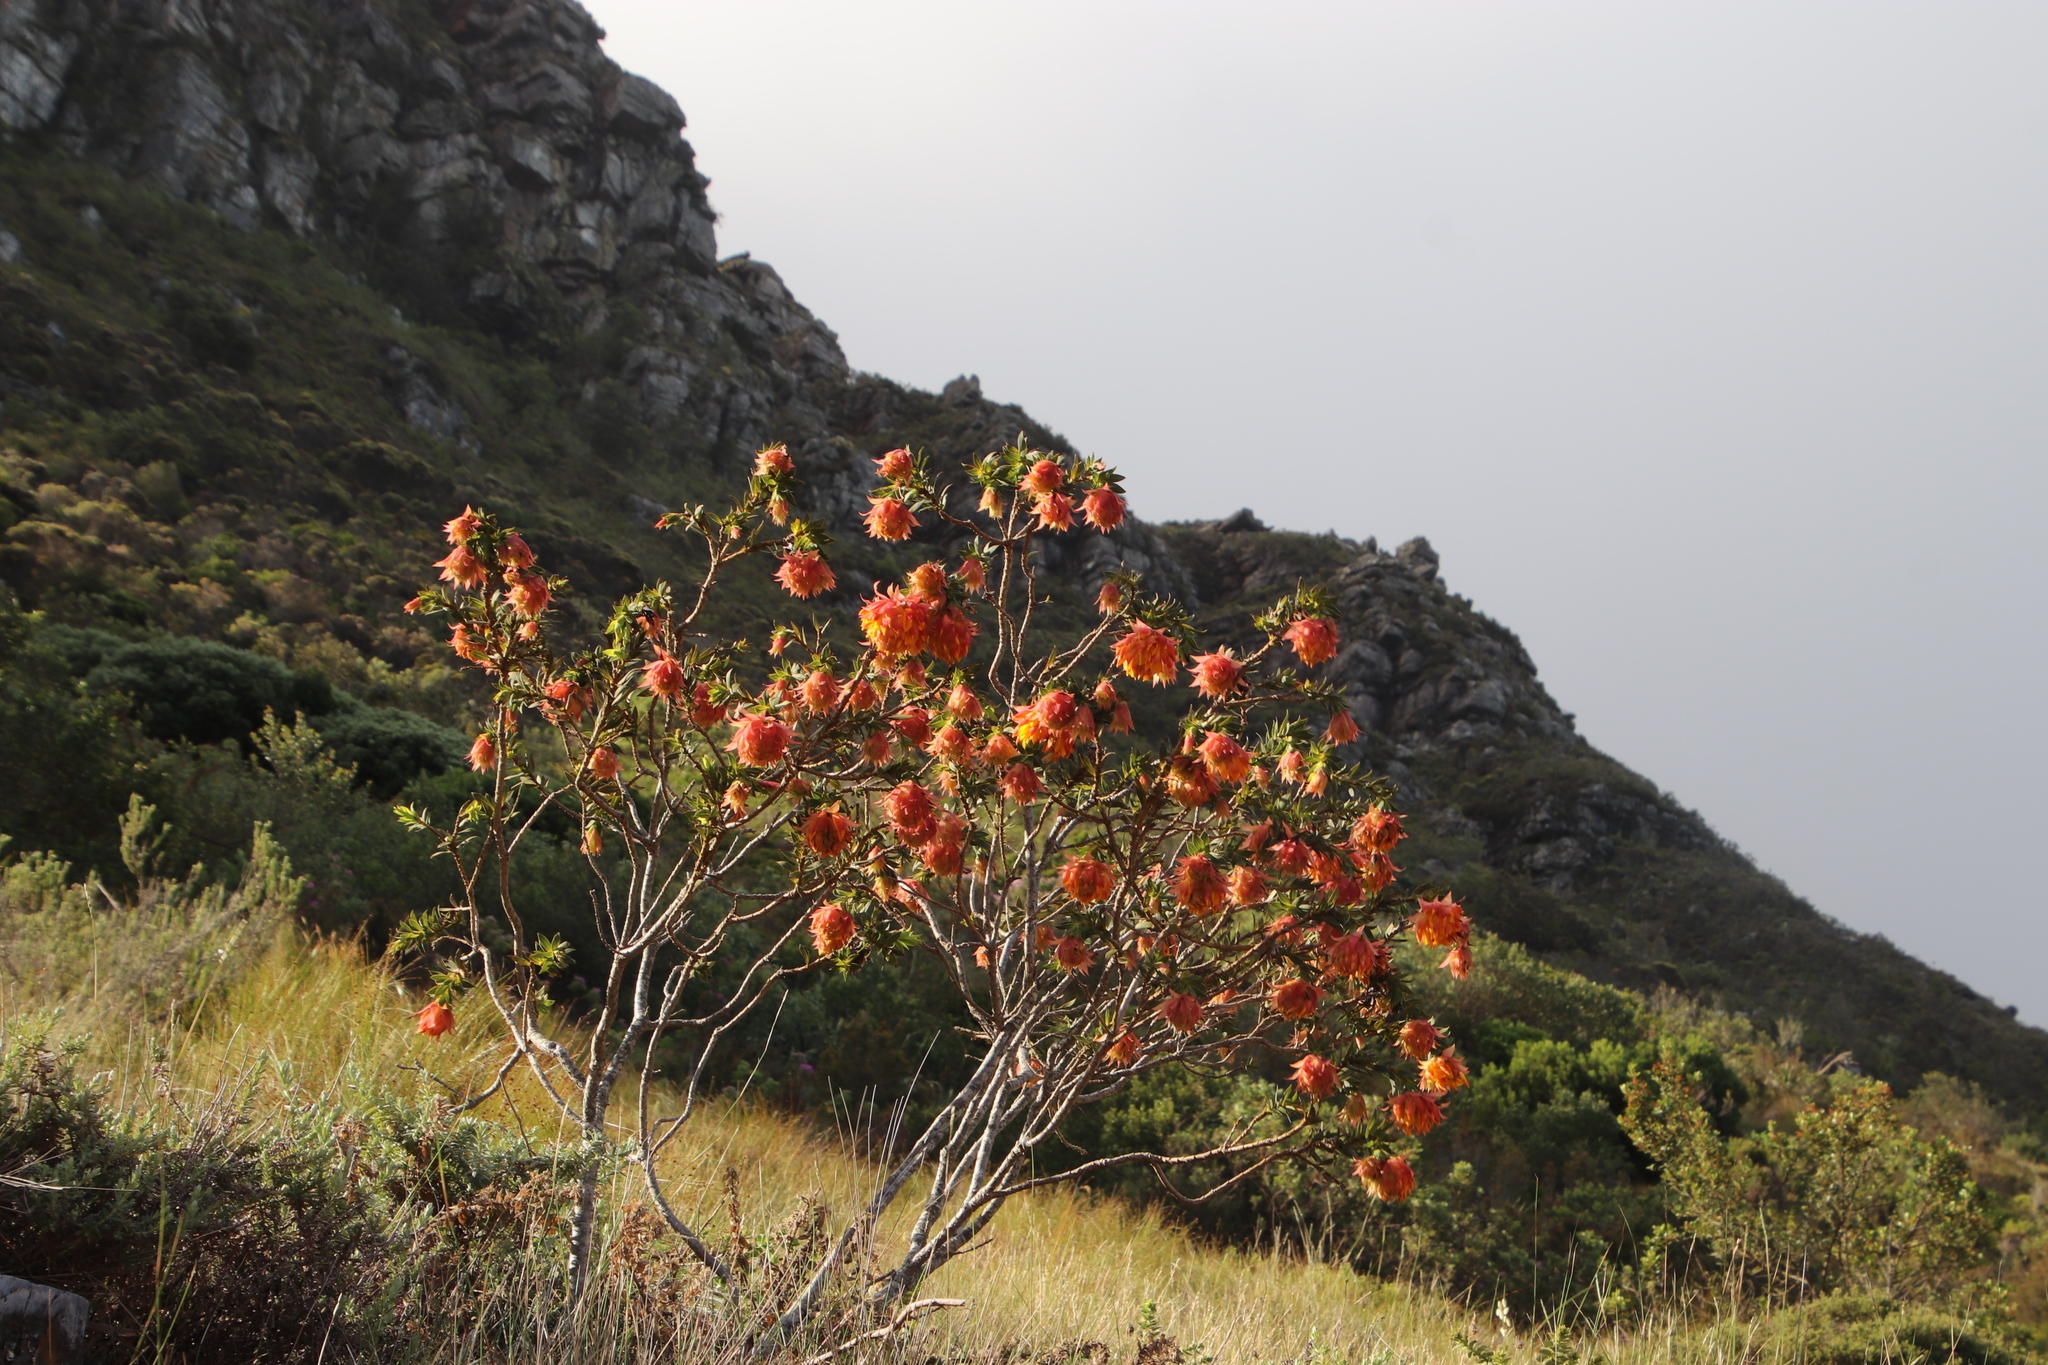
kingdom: Plantae
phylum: Tracheophyta
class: Magnoliopsida
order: Fabales
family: Fabaceae
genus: Liparia
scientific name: Liparia splendens
